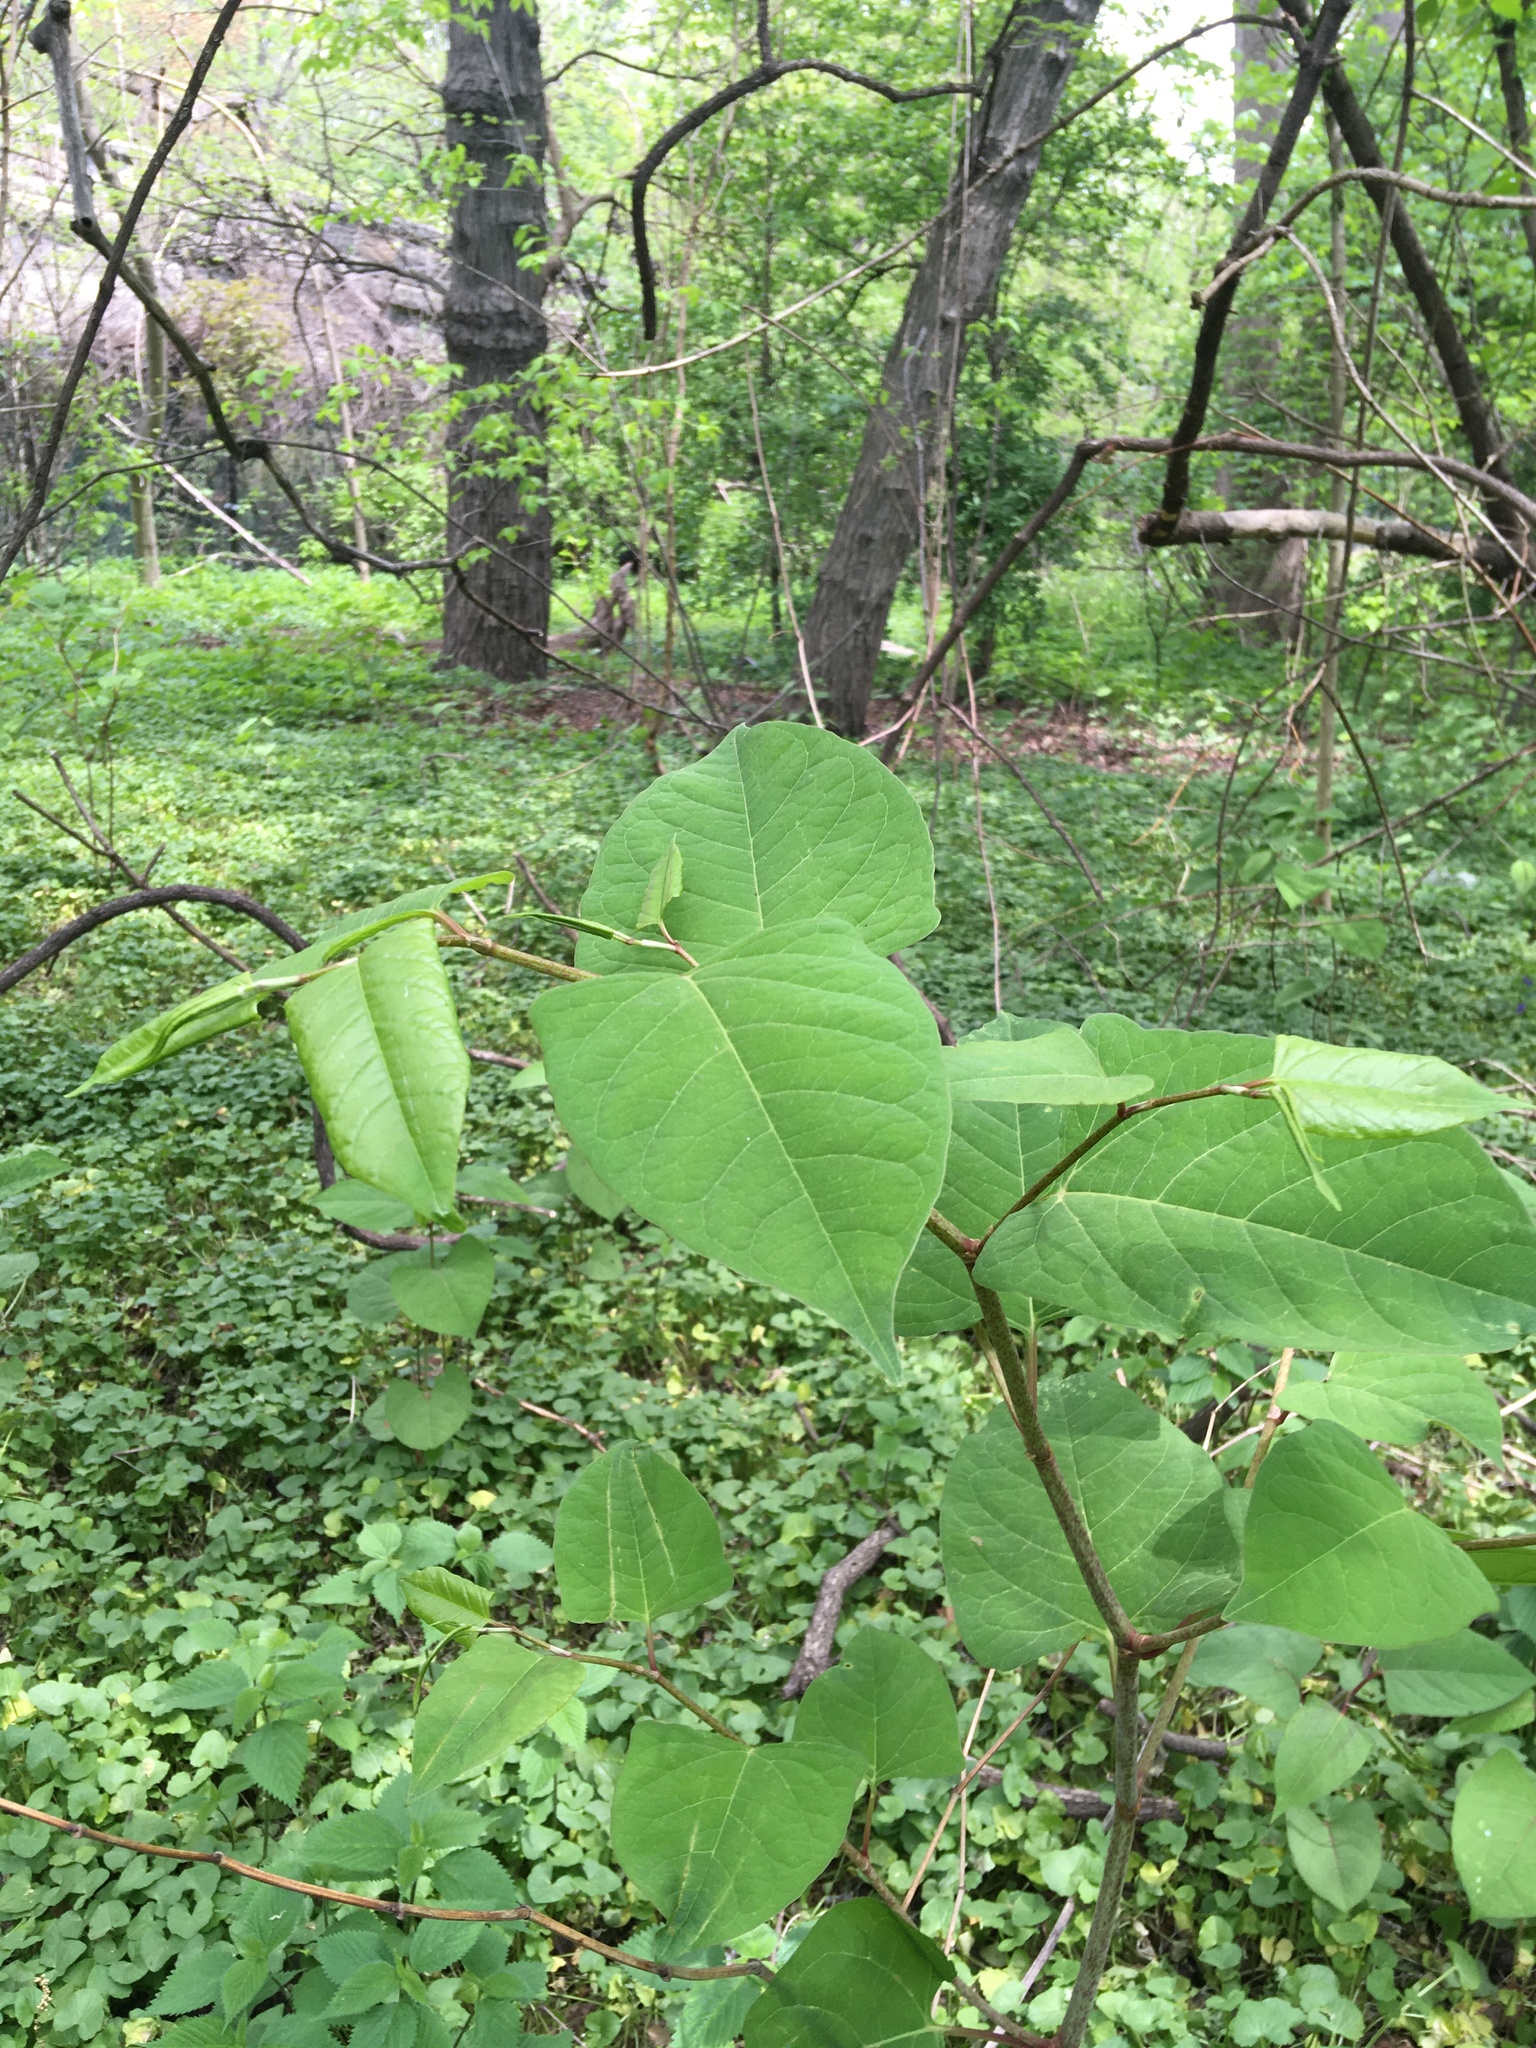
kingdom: Plantae
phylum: Tracheophyta
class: Magnoliopsida
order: Caryophyllales
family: Polygonaceae
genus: Reynoutria
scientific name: Reynoutria japonica
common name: Japanese knotweed
